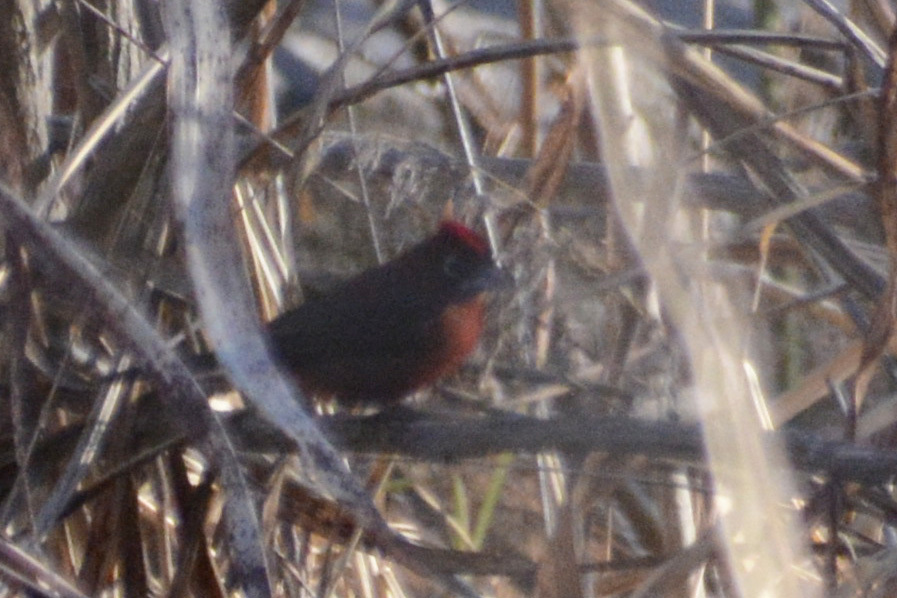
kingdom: Animalia
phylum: Chordata
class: Aves
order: Passeriformes
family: Thraupidae
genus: Coryphospingus
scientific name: Coryphospingus cucullatus
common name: Red pileated finch
